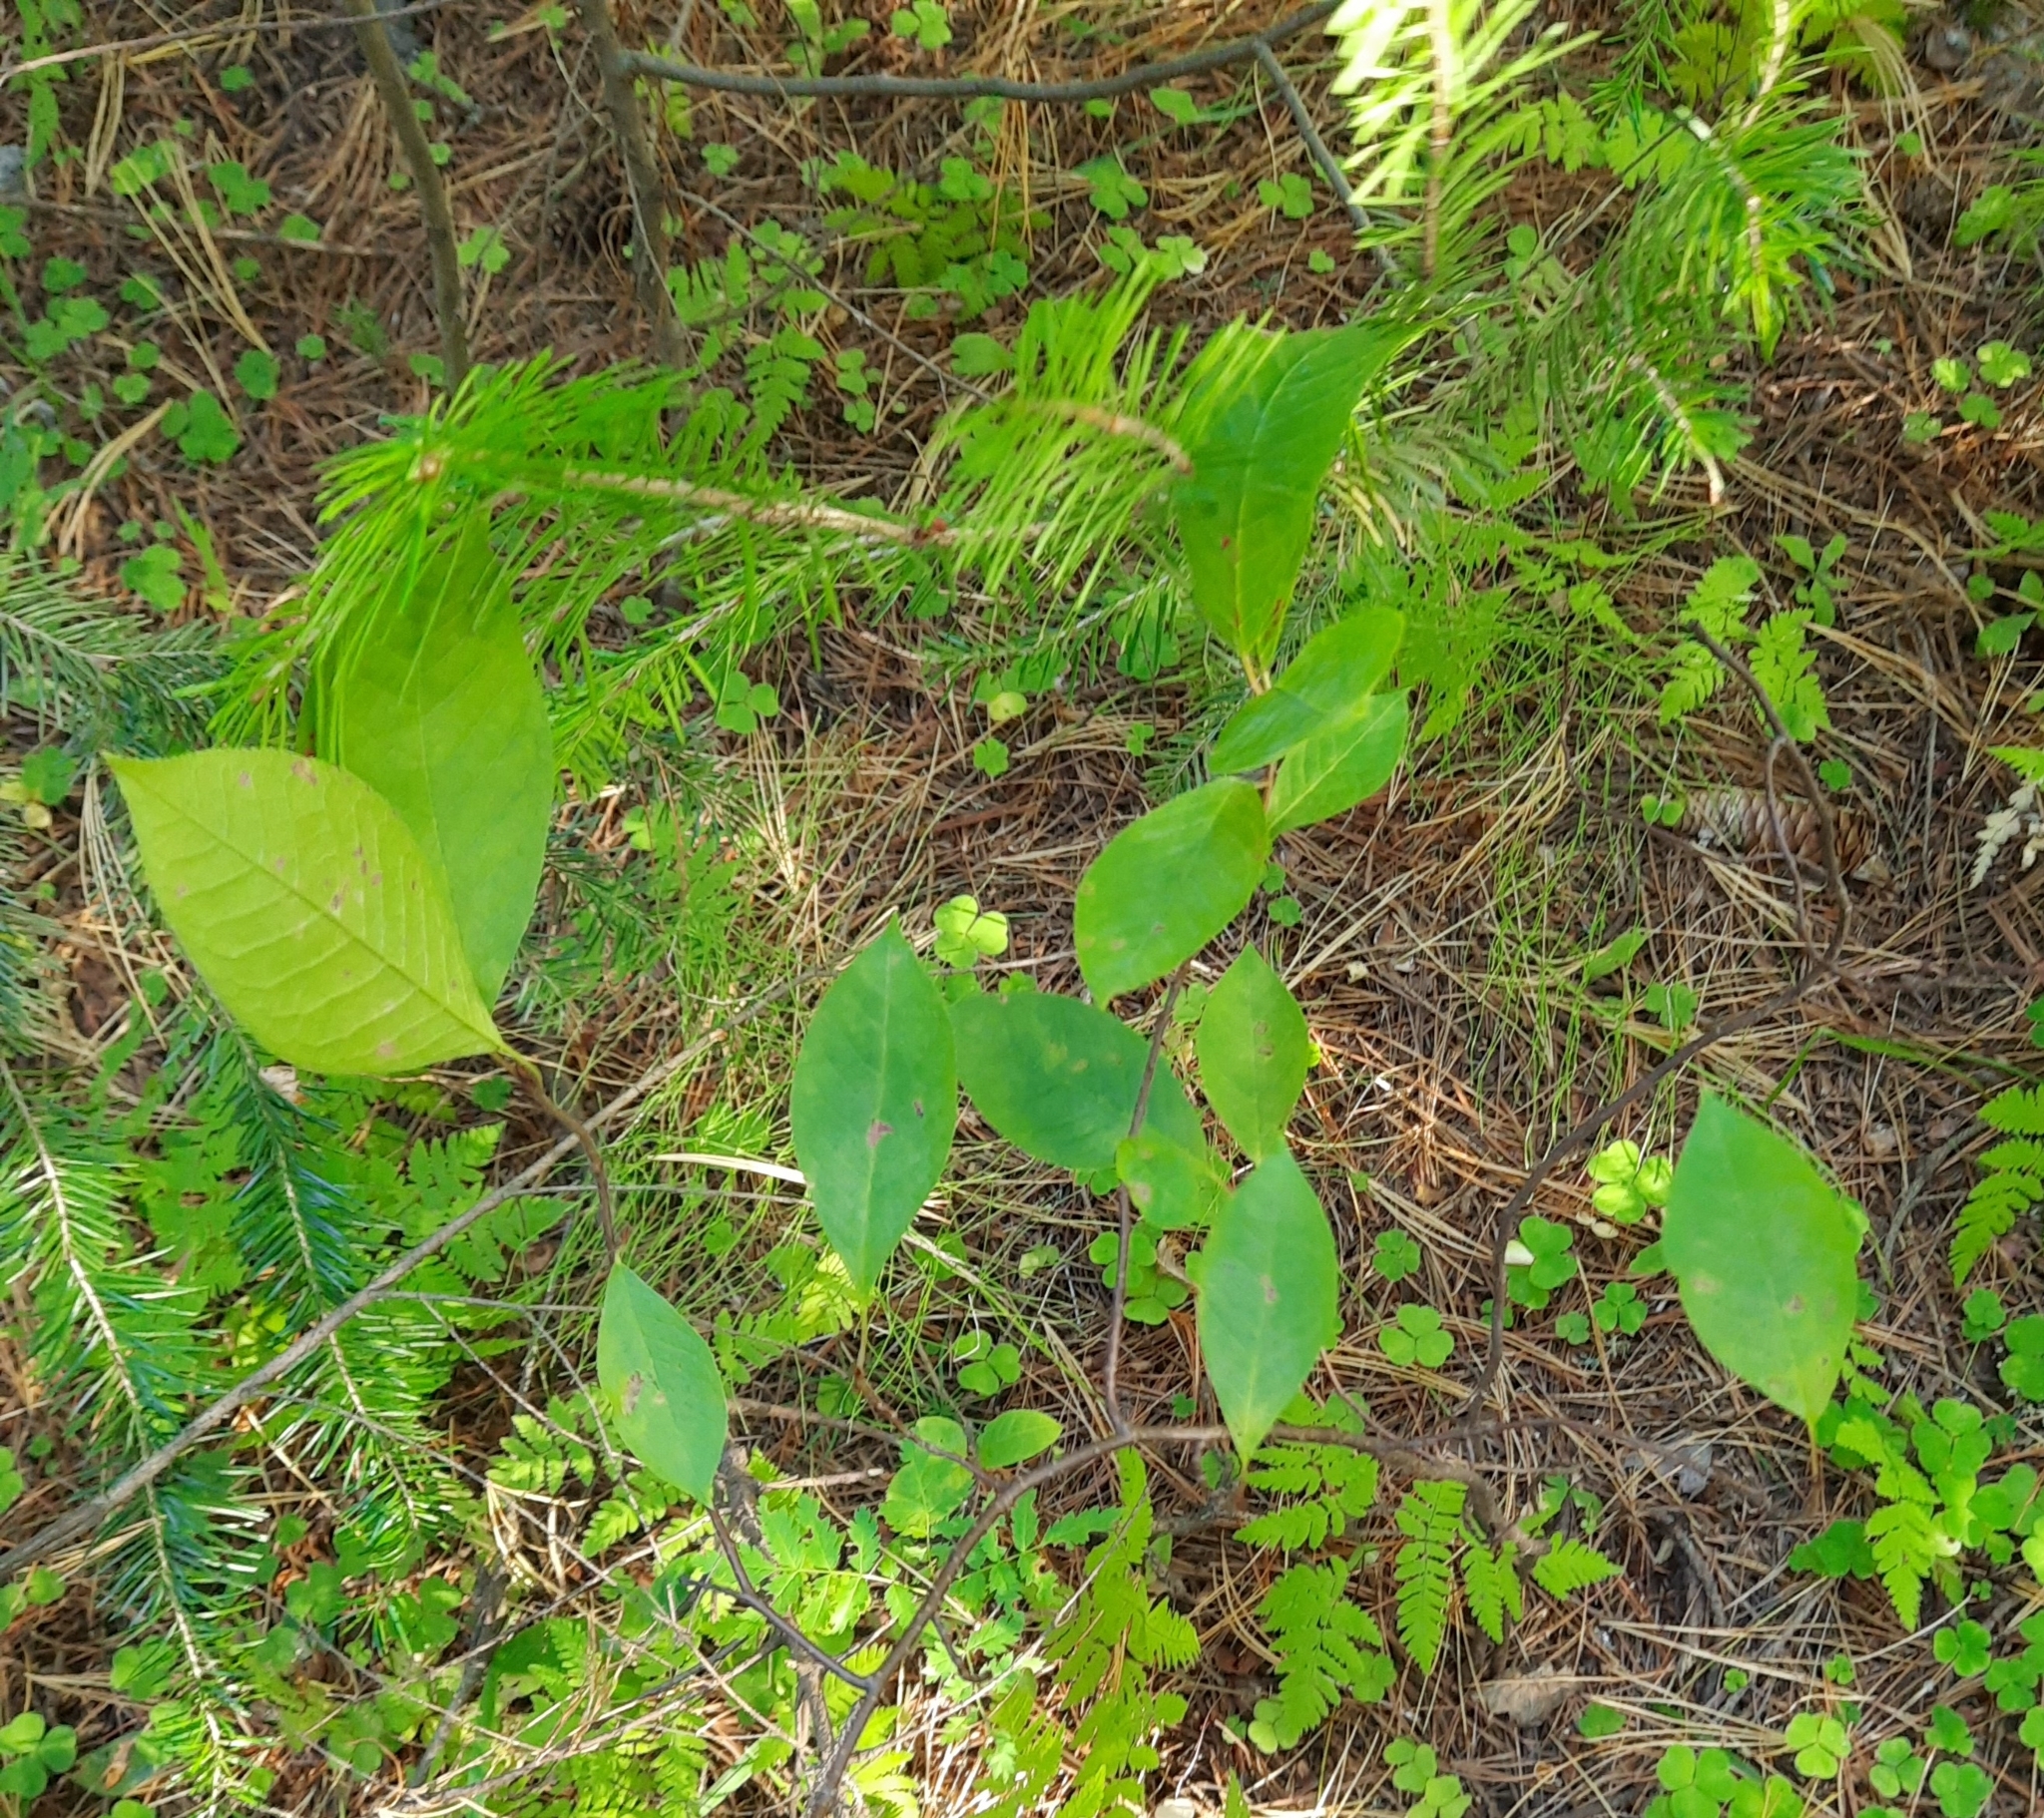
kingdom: Plantae
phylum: Tracheophyta
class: Magnoliopsida
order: Rosales
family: Rosaceae
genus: Prunus
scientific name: Prunus padus
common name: Bird cherry
